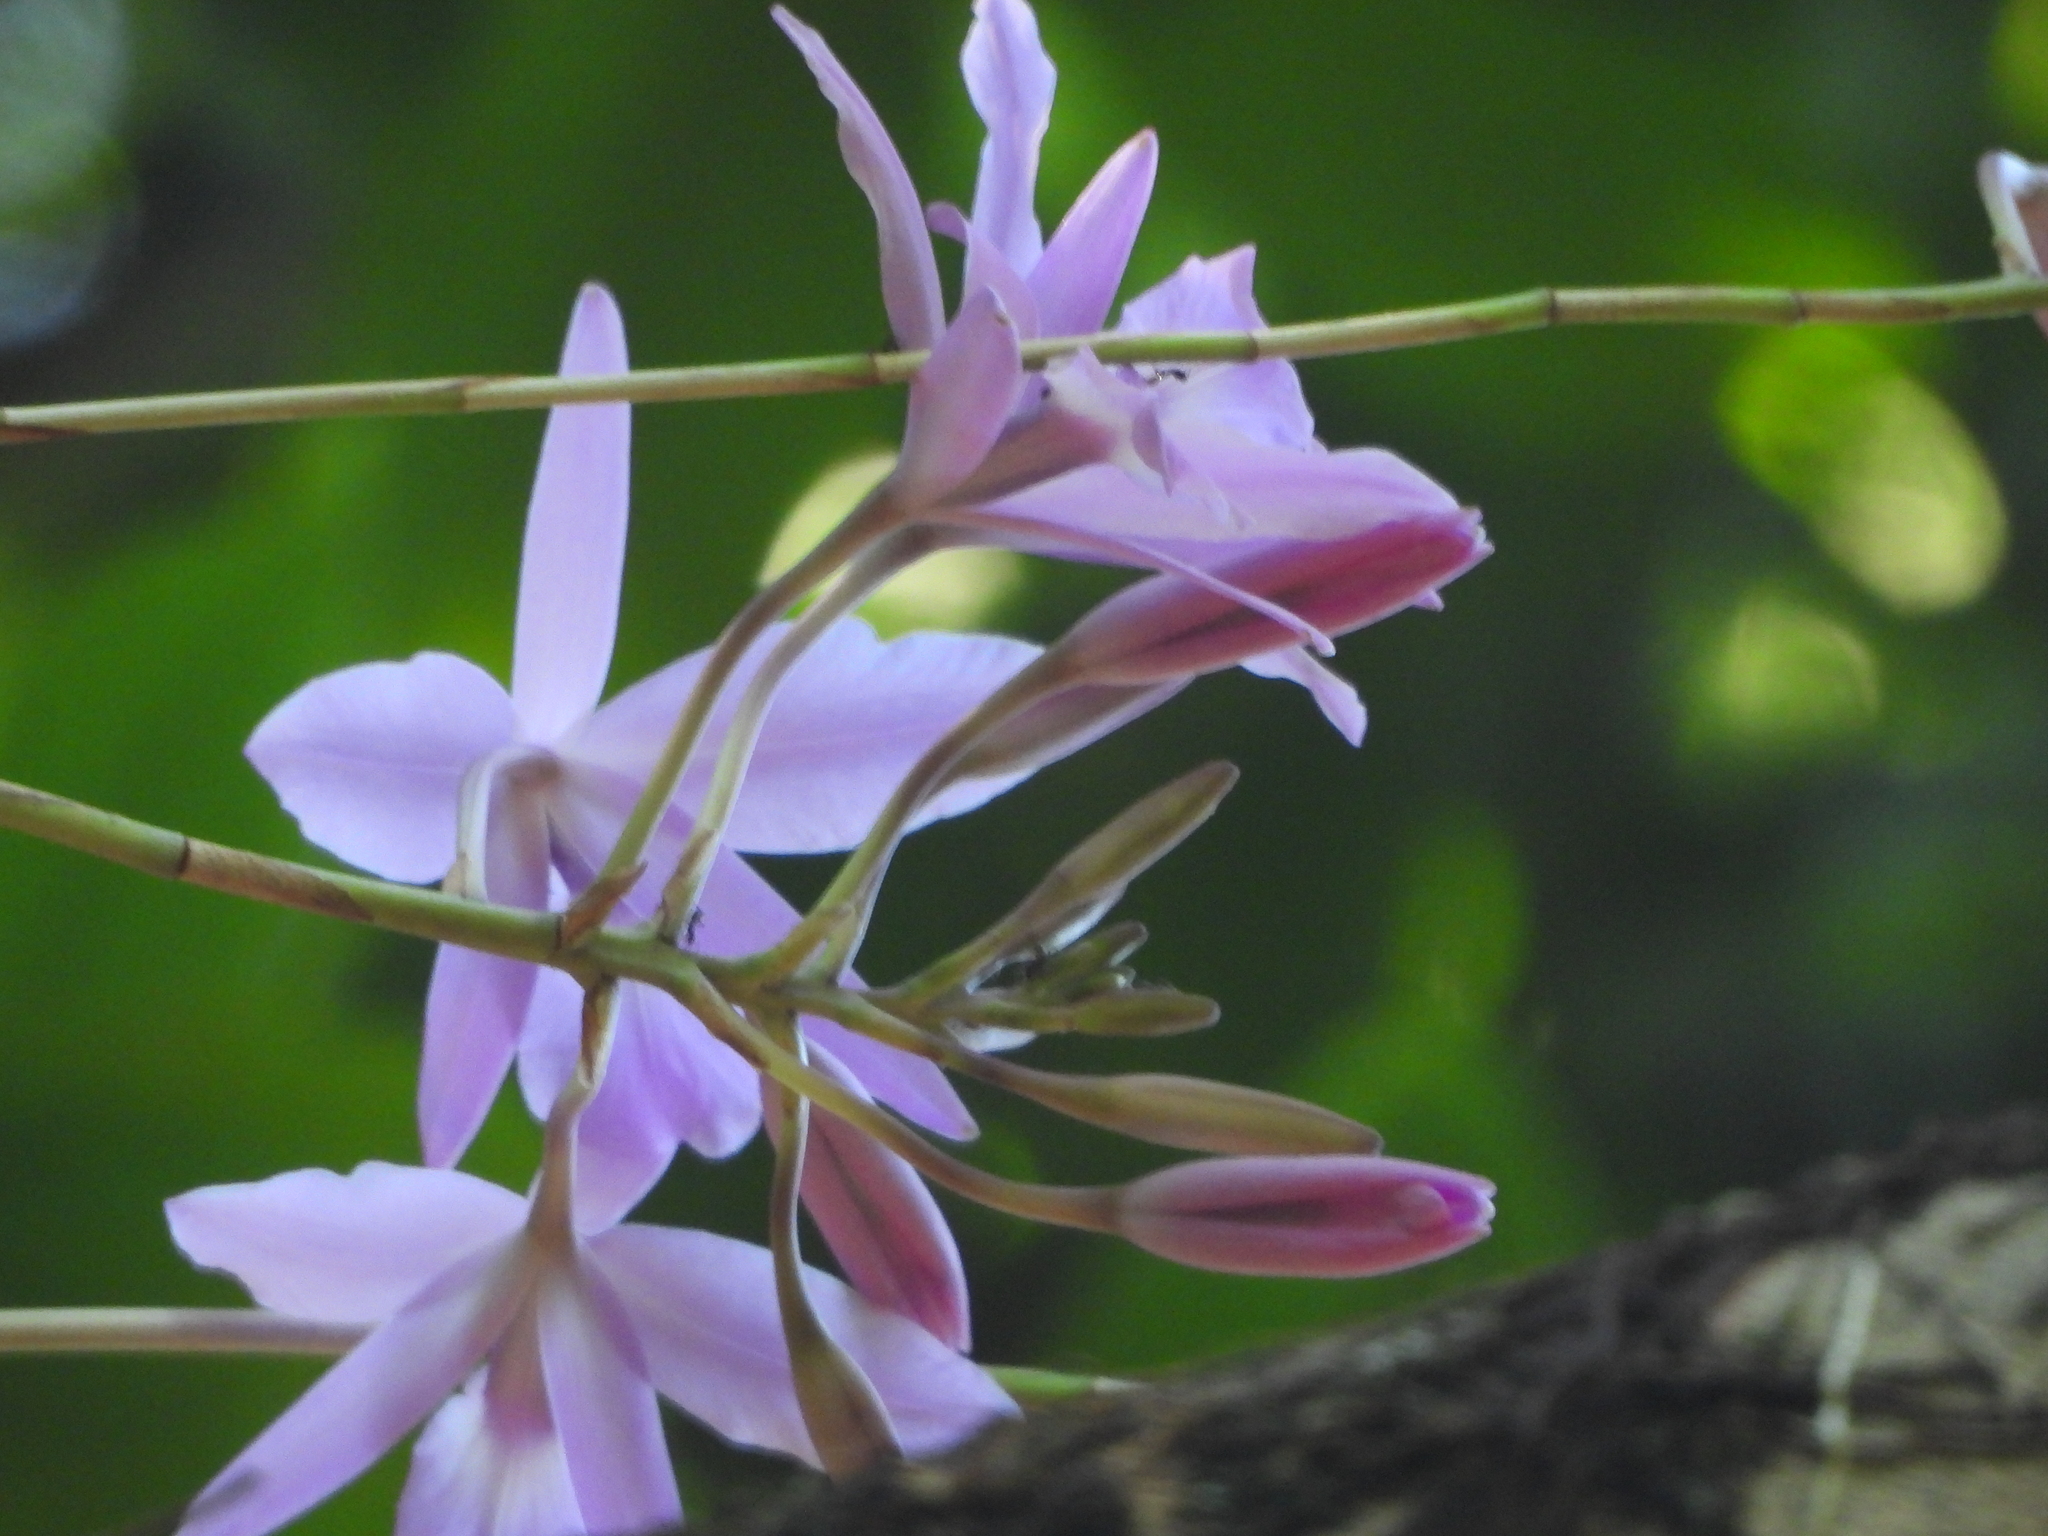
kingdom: Plantae
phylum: Tracheophyta
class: Liliopsida
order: Asparagales
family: Orchidaceae
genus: Laelia
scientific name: Laelia rubescens
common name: Pale laelia
